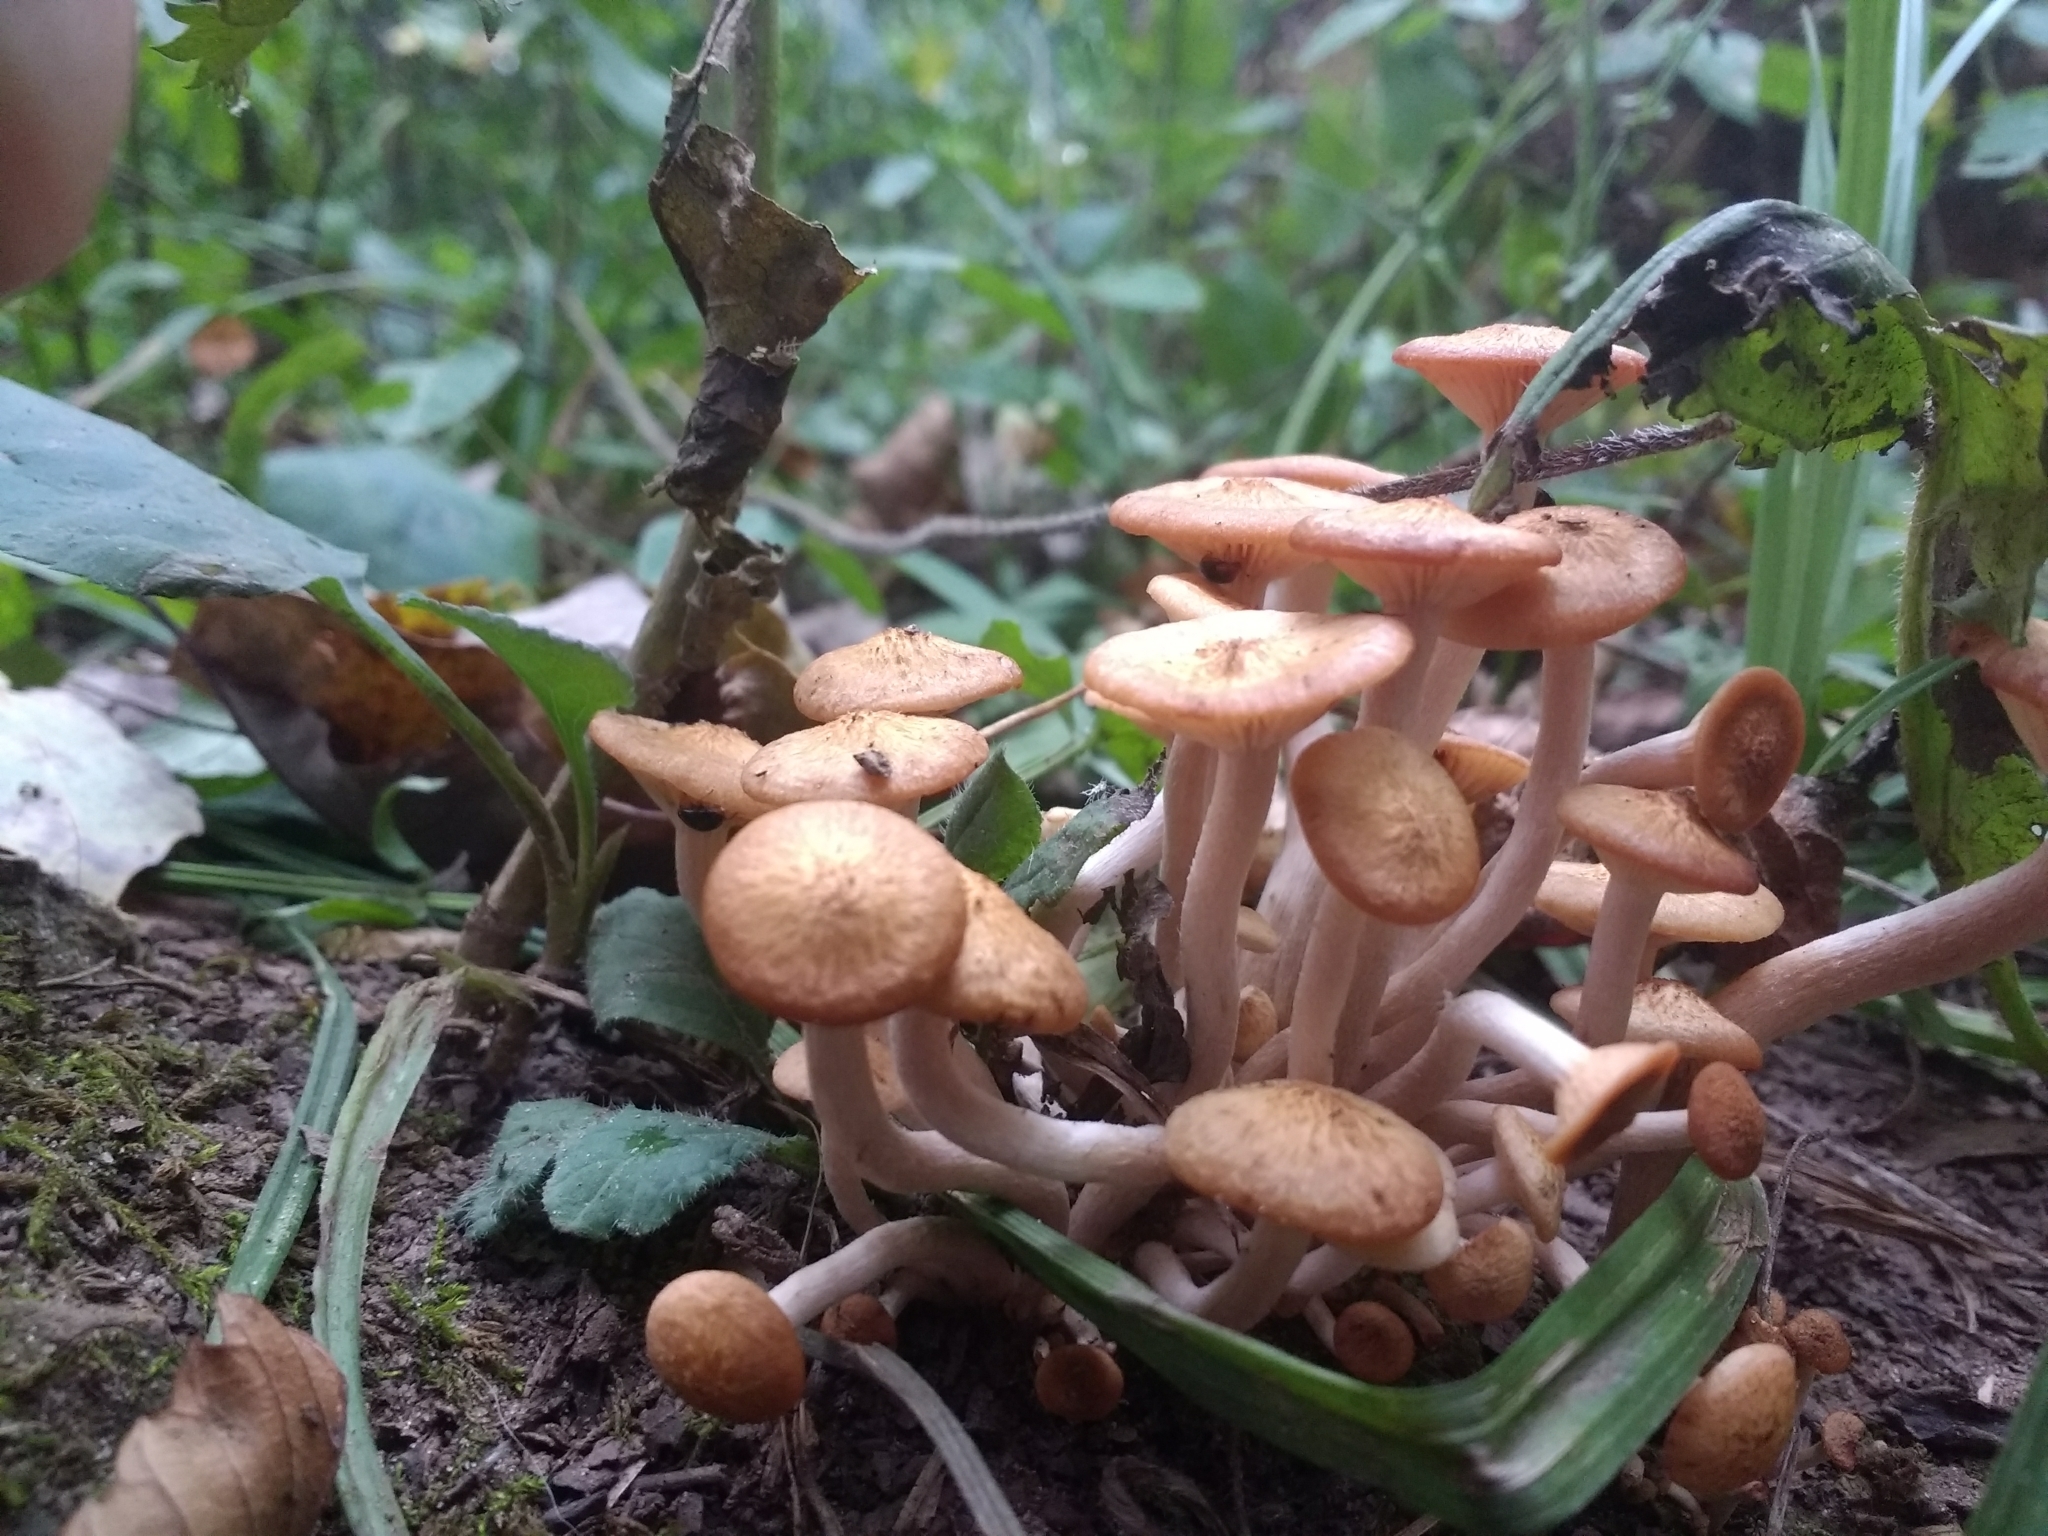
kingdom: Fungi
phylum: Basidiomycota
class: Agaricomycetes
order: Agaricales
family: Physalacriaceae
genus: Desarmillaria
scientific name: Desarmillaria caespitosa
